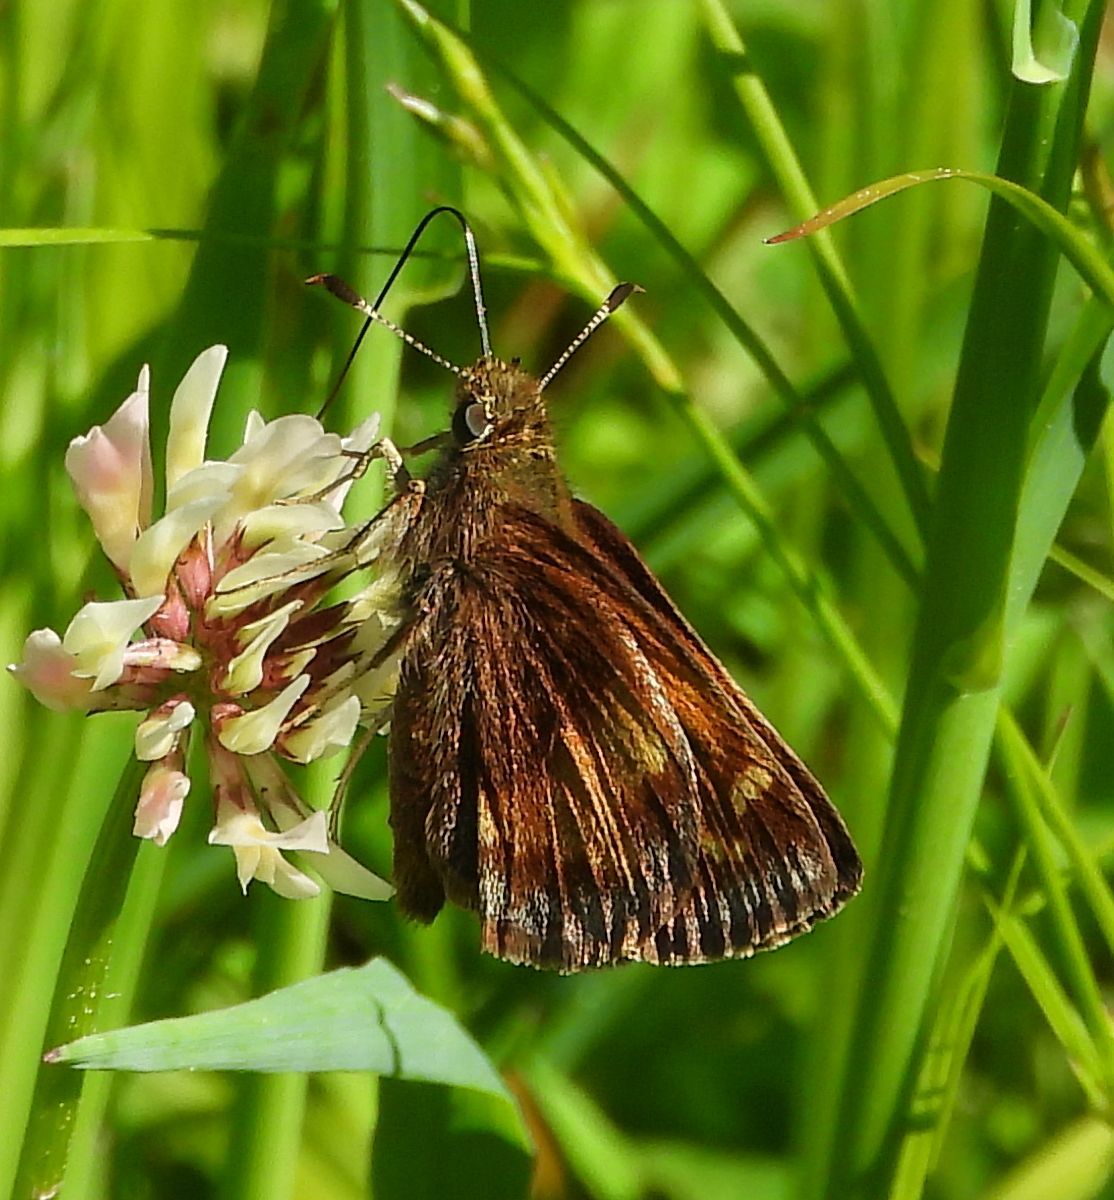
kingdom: Animalia
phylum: Arthropoda
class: Insecta
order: Lepidoptera
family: Hesperiidae
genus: Lon
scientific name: Lon hobomok
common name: Hobomok skipper
